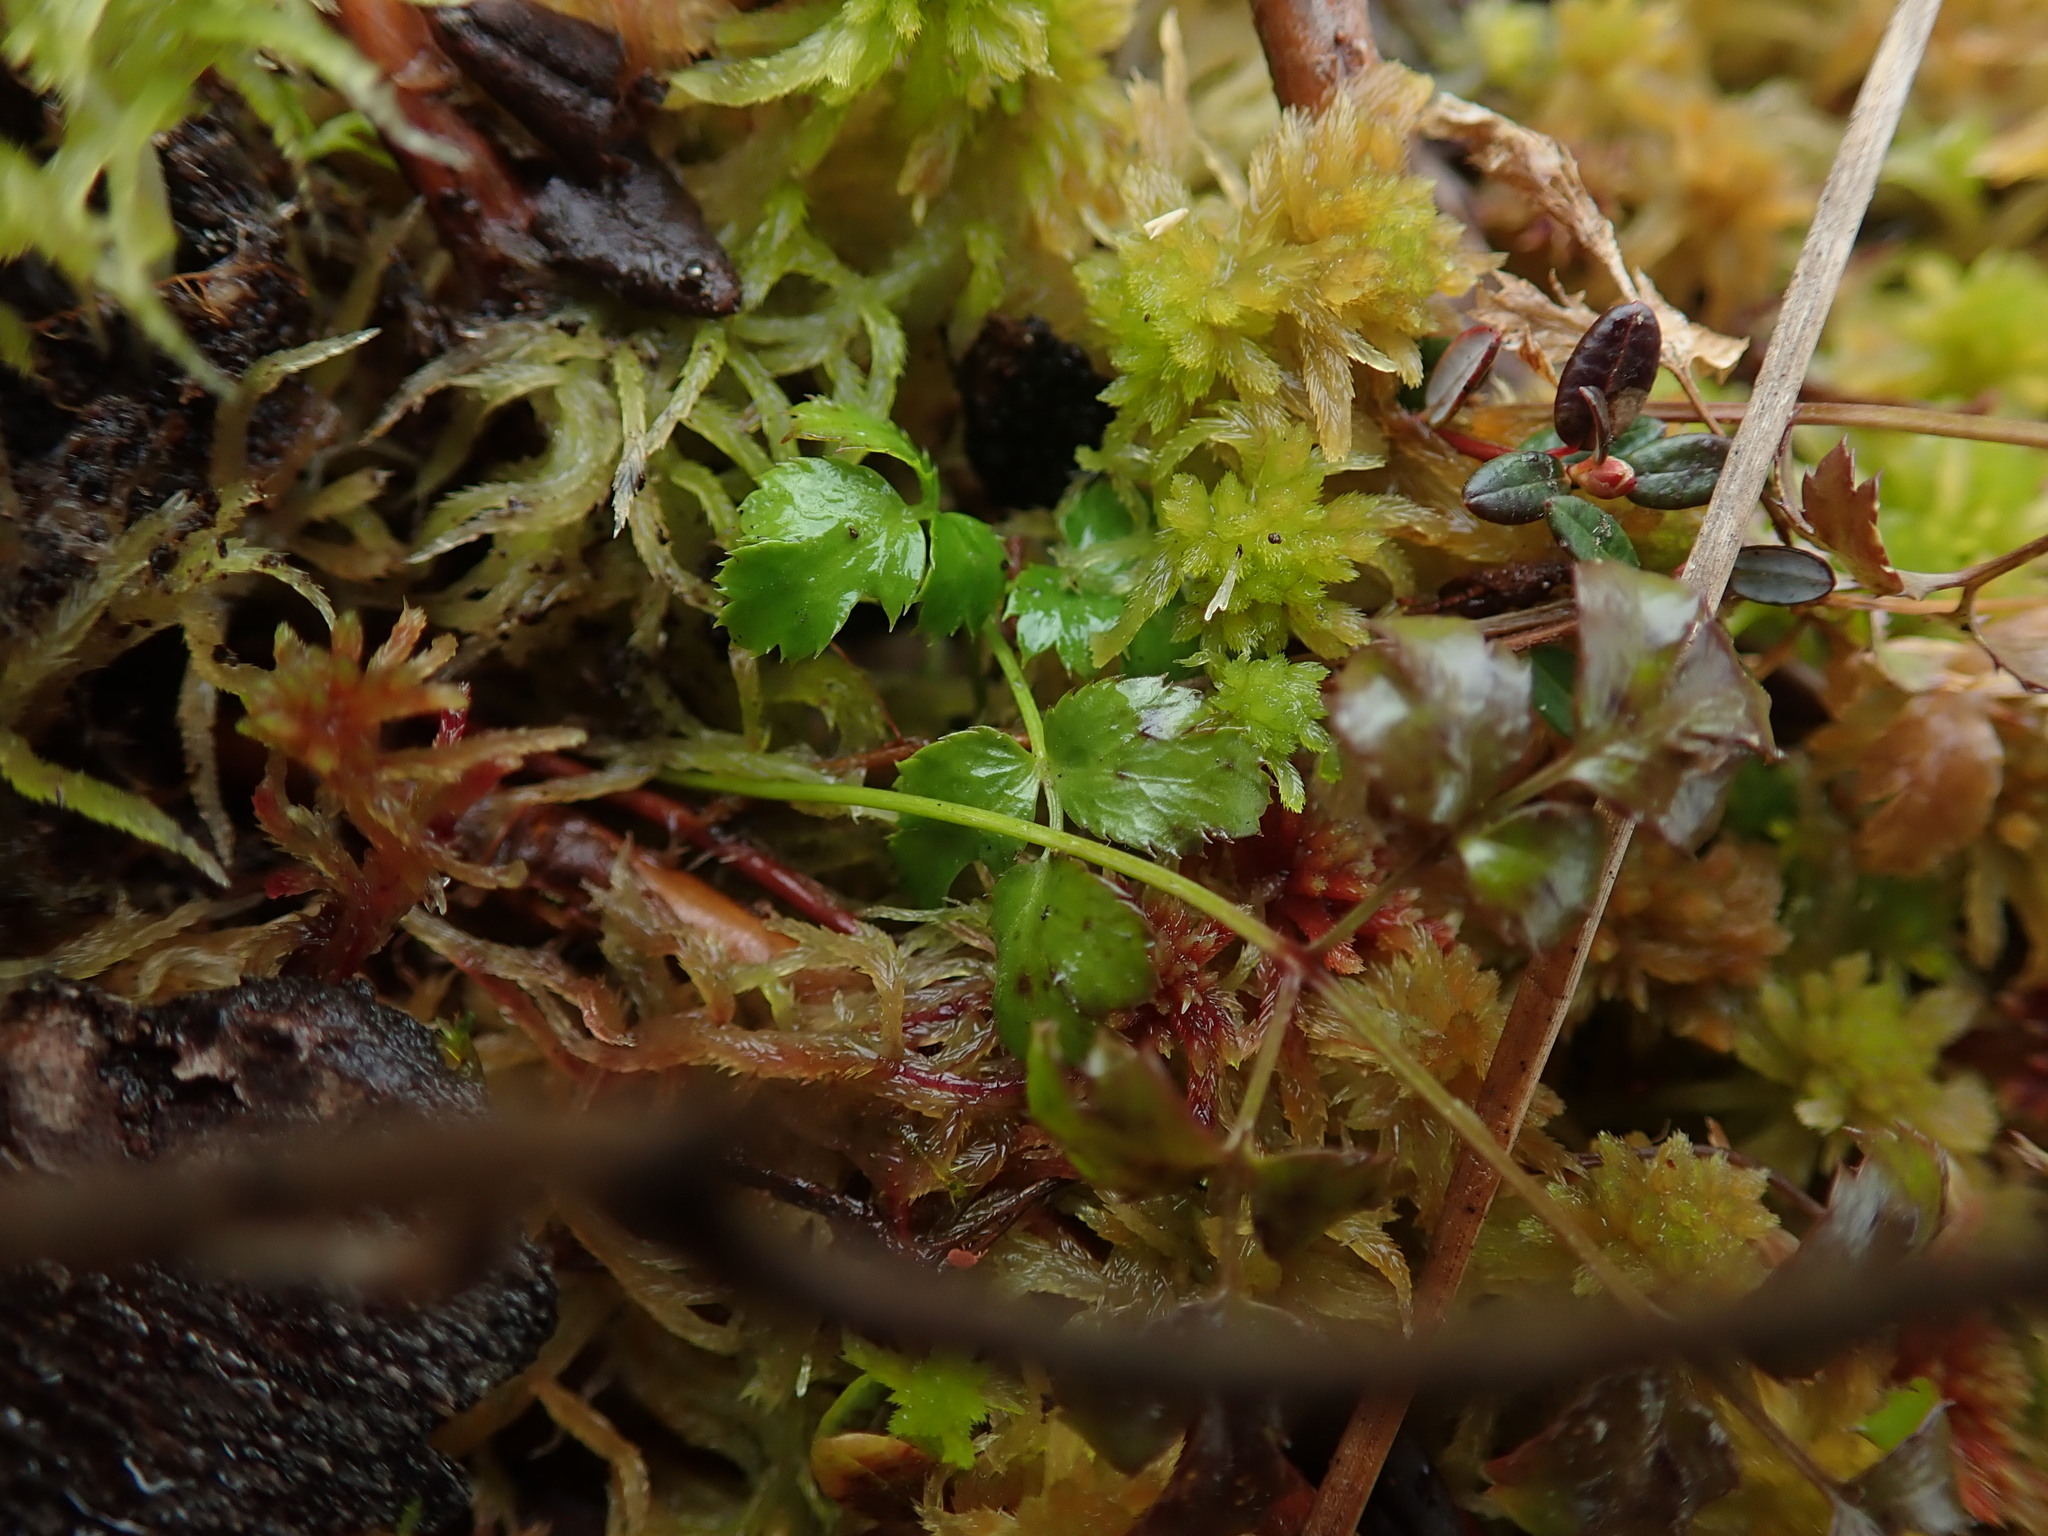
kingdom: Plantae
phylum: Tracheophyta
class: Magnoliopsida
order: Ranunculales
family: Ranunculaceae
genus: Coptis
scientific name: Coptis aspleniifolia
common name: Fern-leaved goldthread
